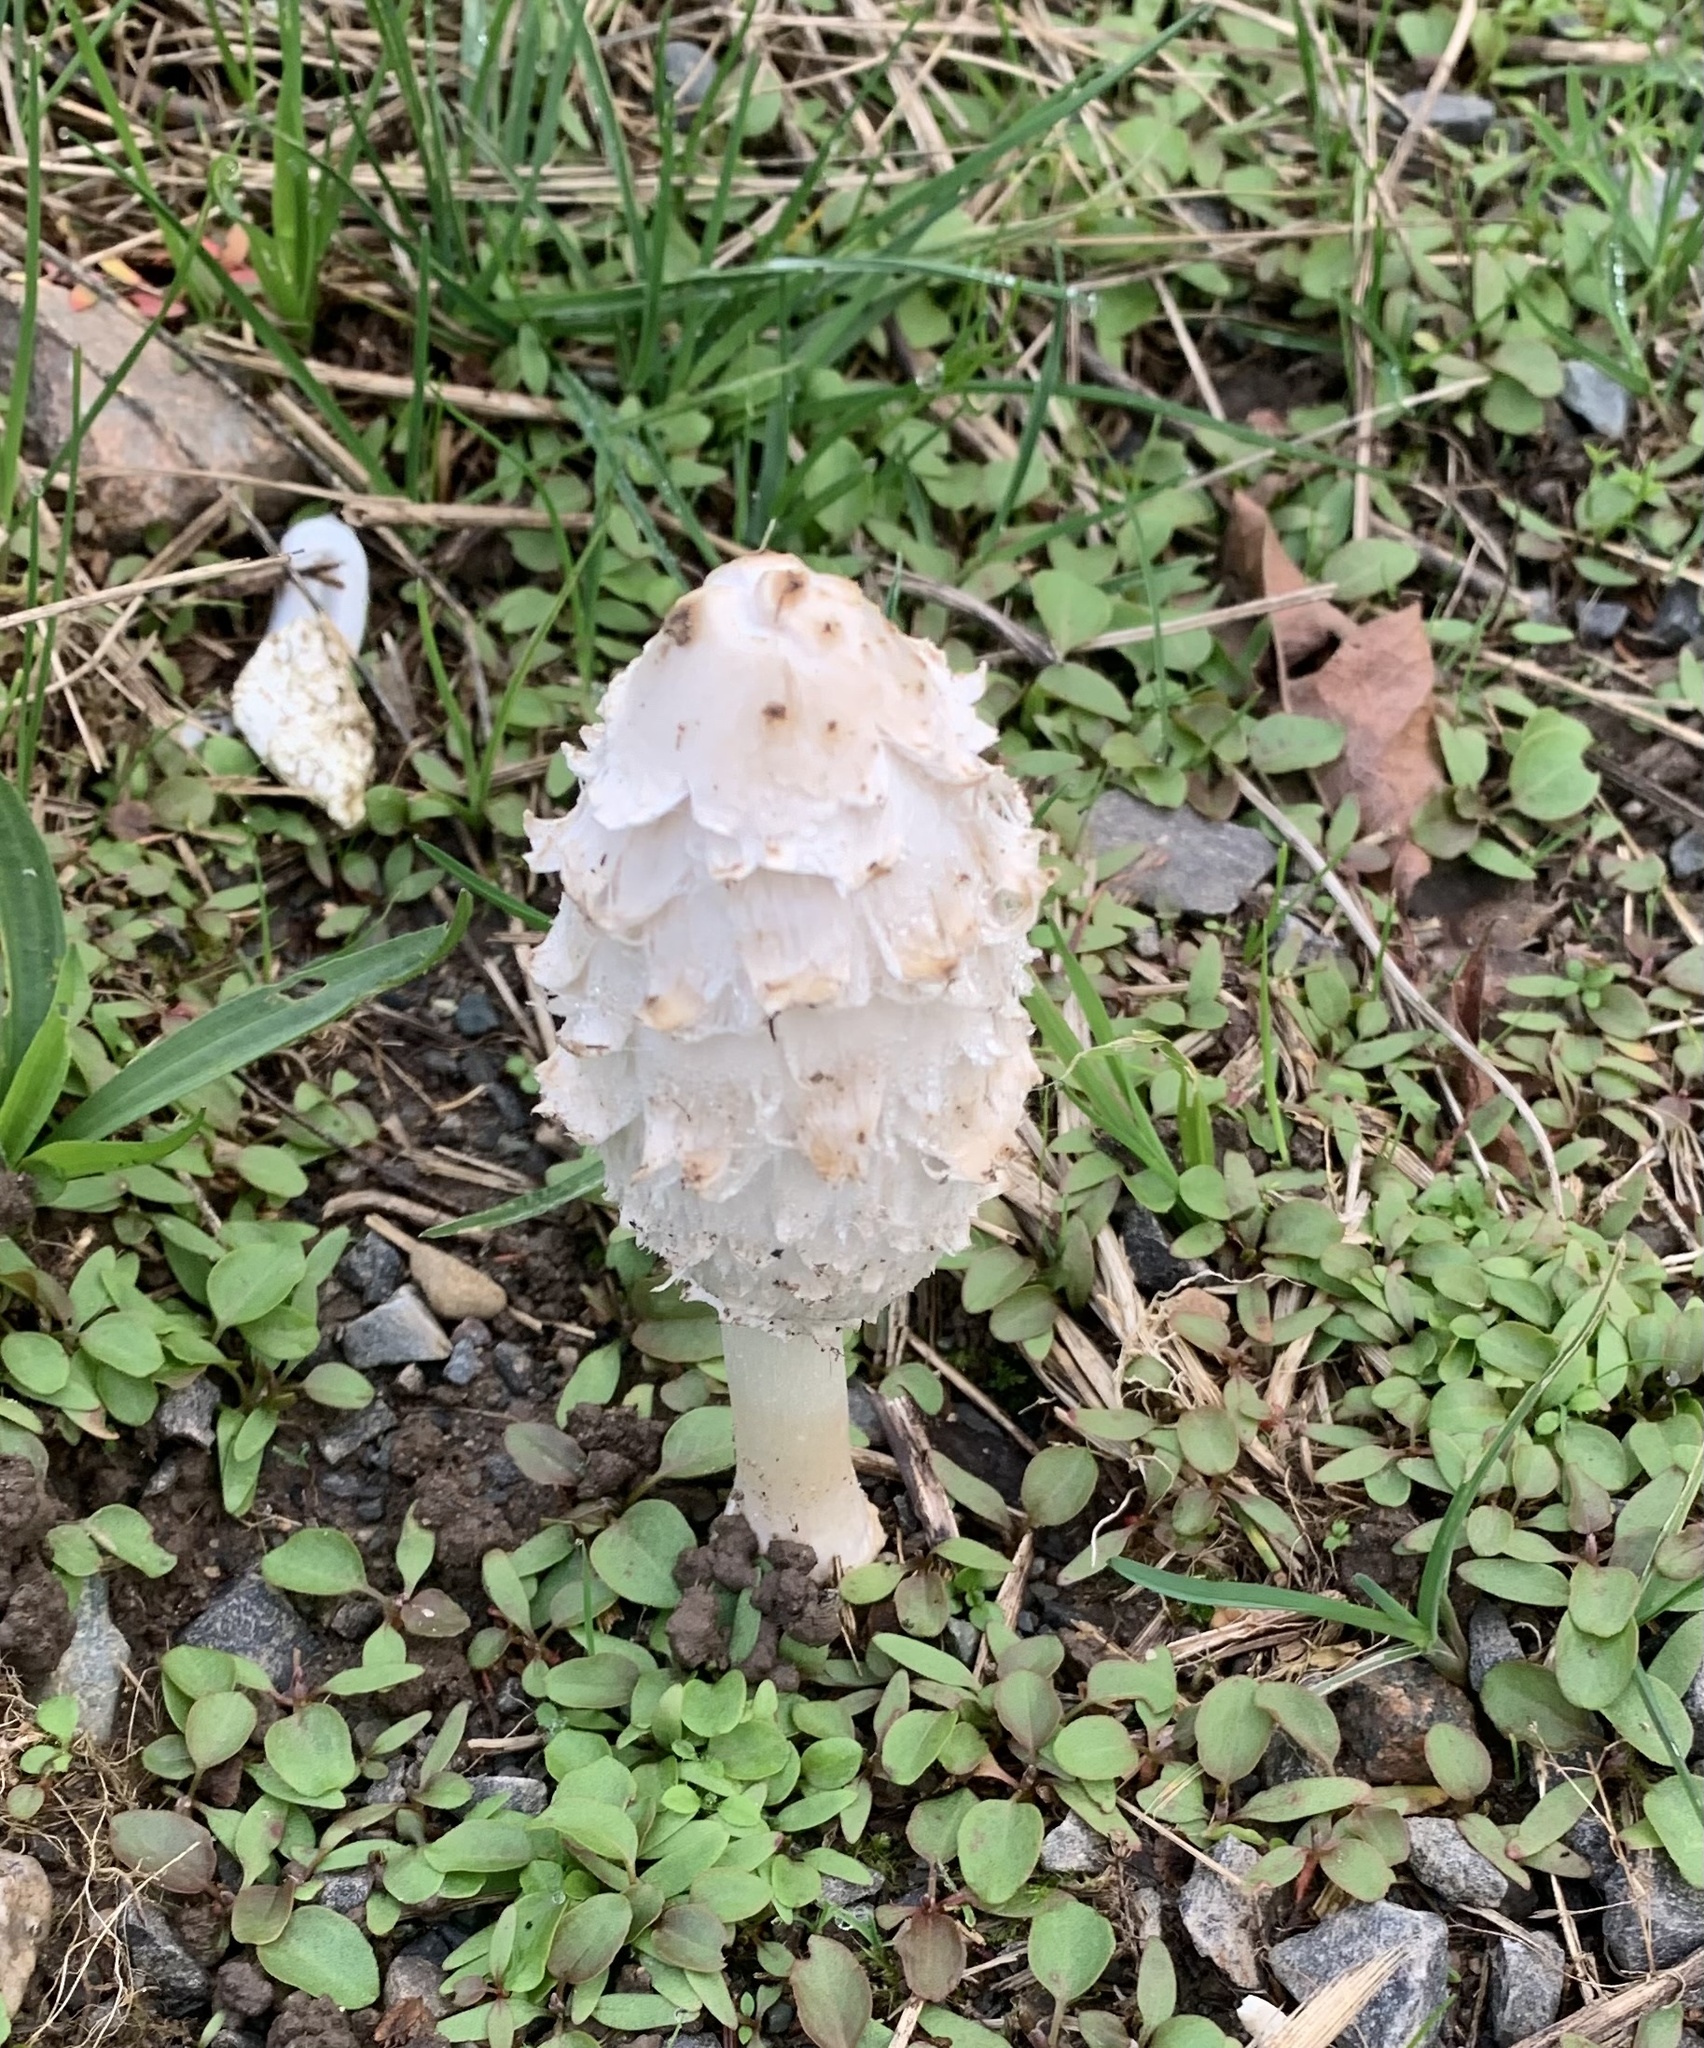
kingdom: Fungi
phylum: Basidiomycota
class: Agaricomycetes
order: Agaricales
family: Agaricaceae
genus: Coprinus
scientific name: Coprinus comatus
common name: Lawyer's wig
